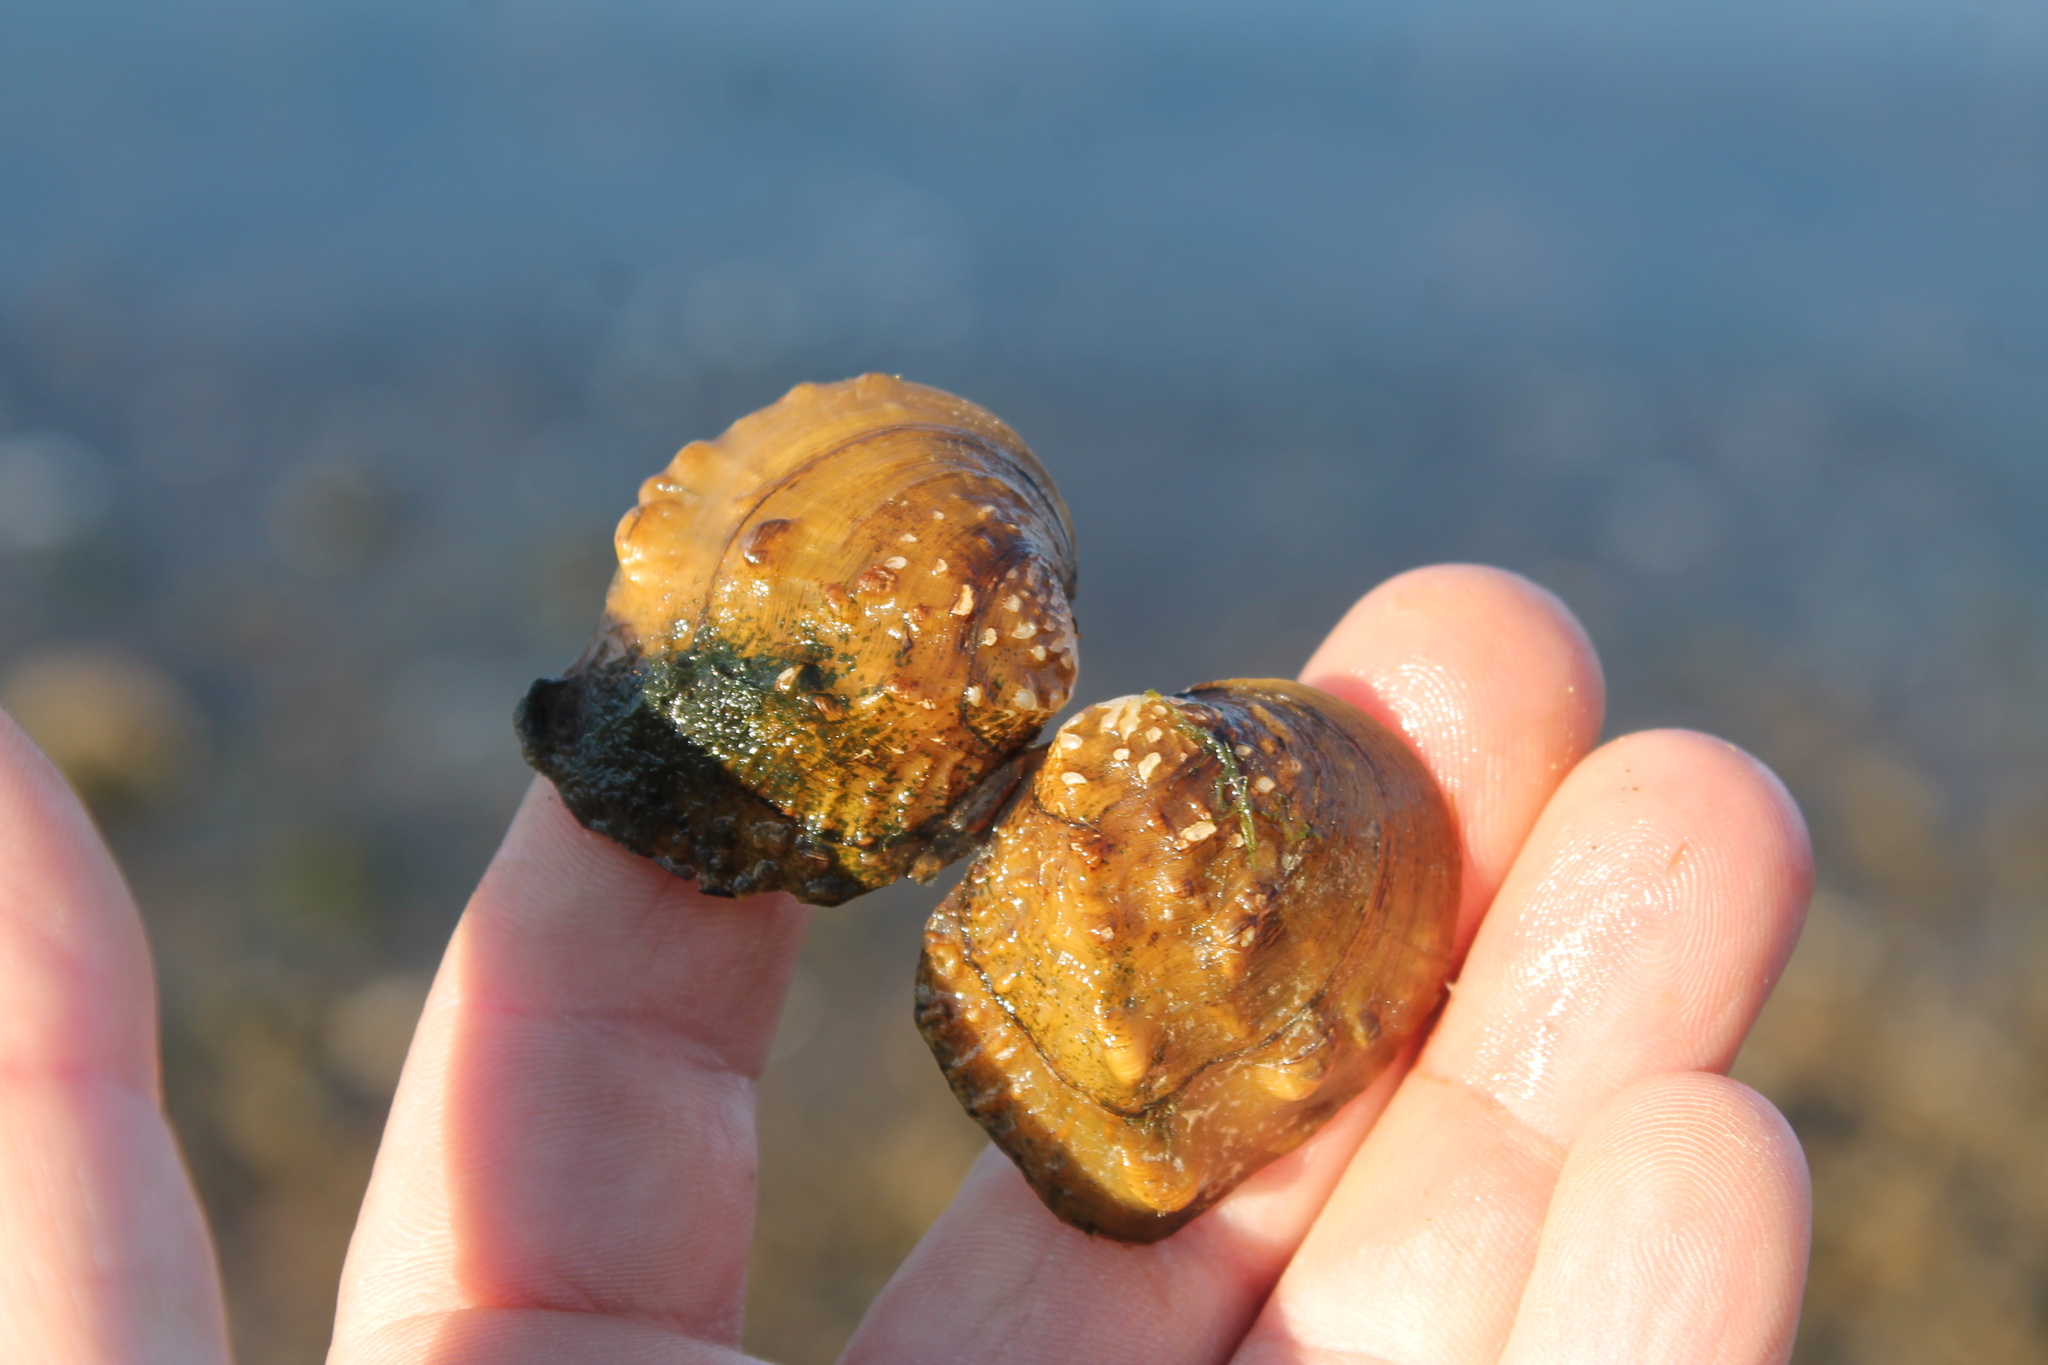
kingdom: Animalia
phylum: Mollusca
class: Bivalvia
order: Unionida
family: Unionidae
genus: Quadrula
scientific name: Quadrula quadrula
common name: Mapleleaf
